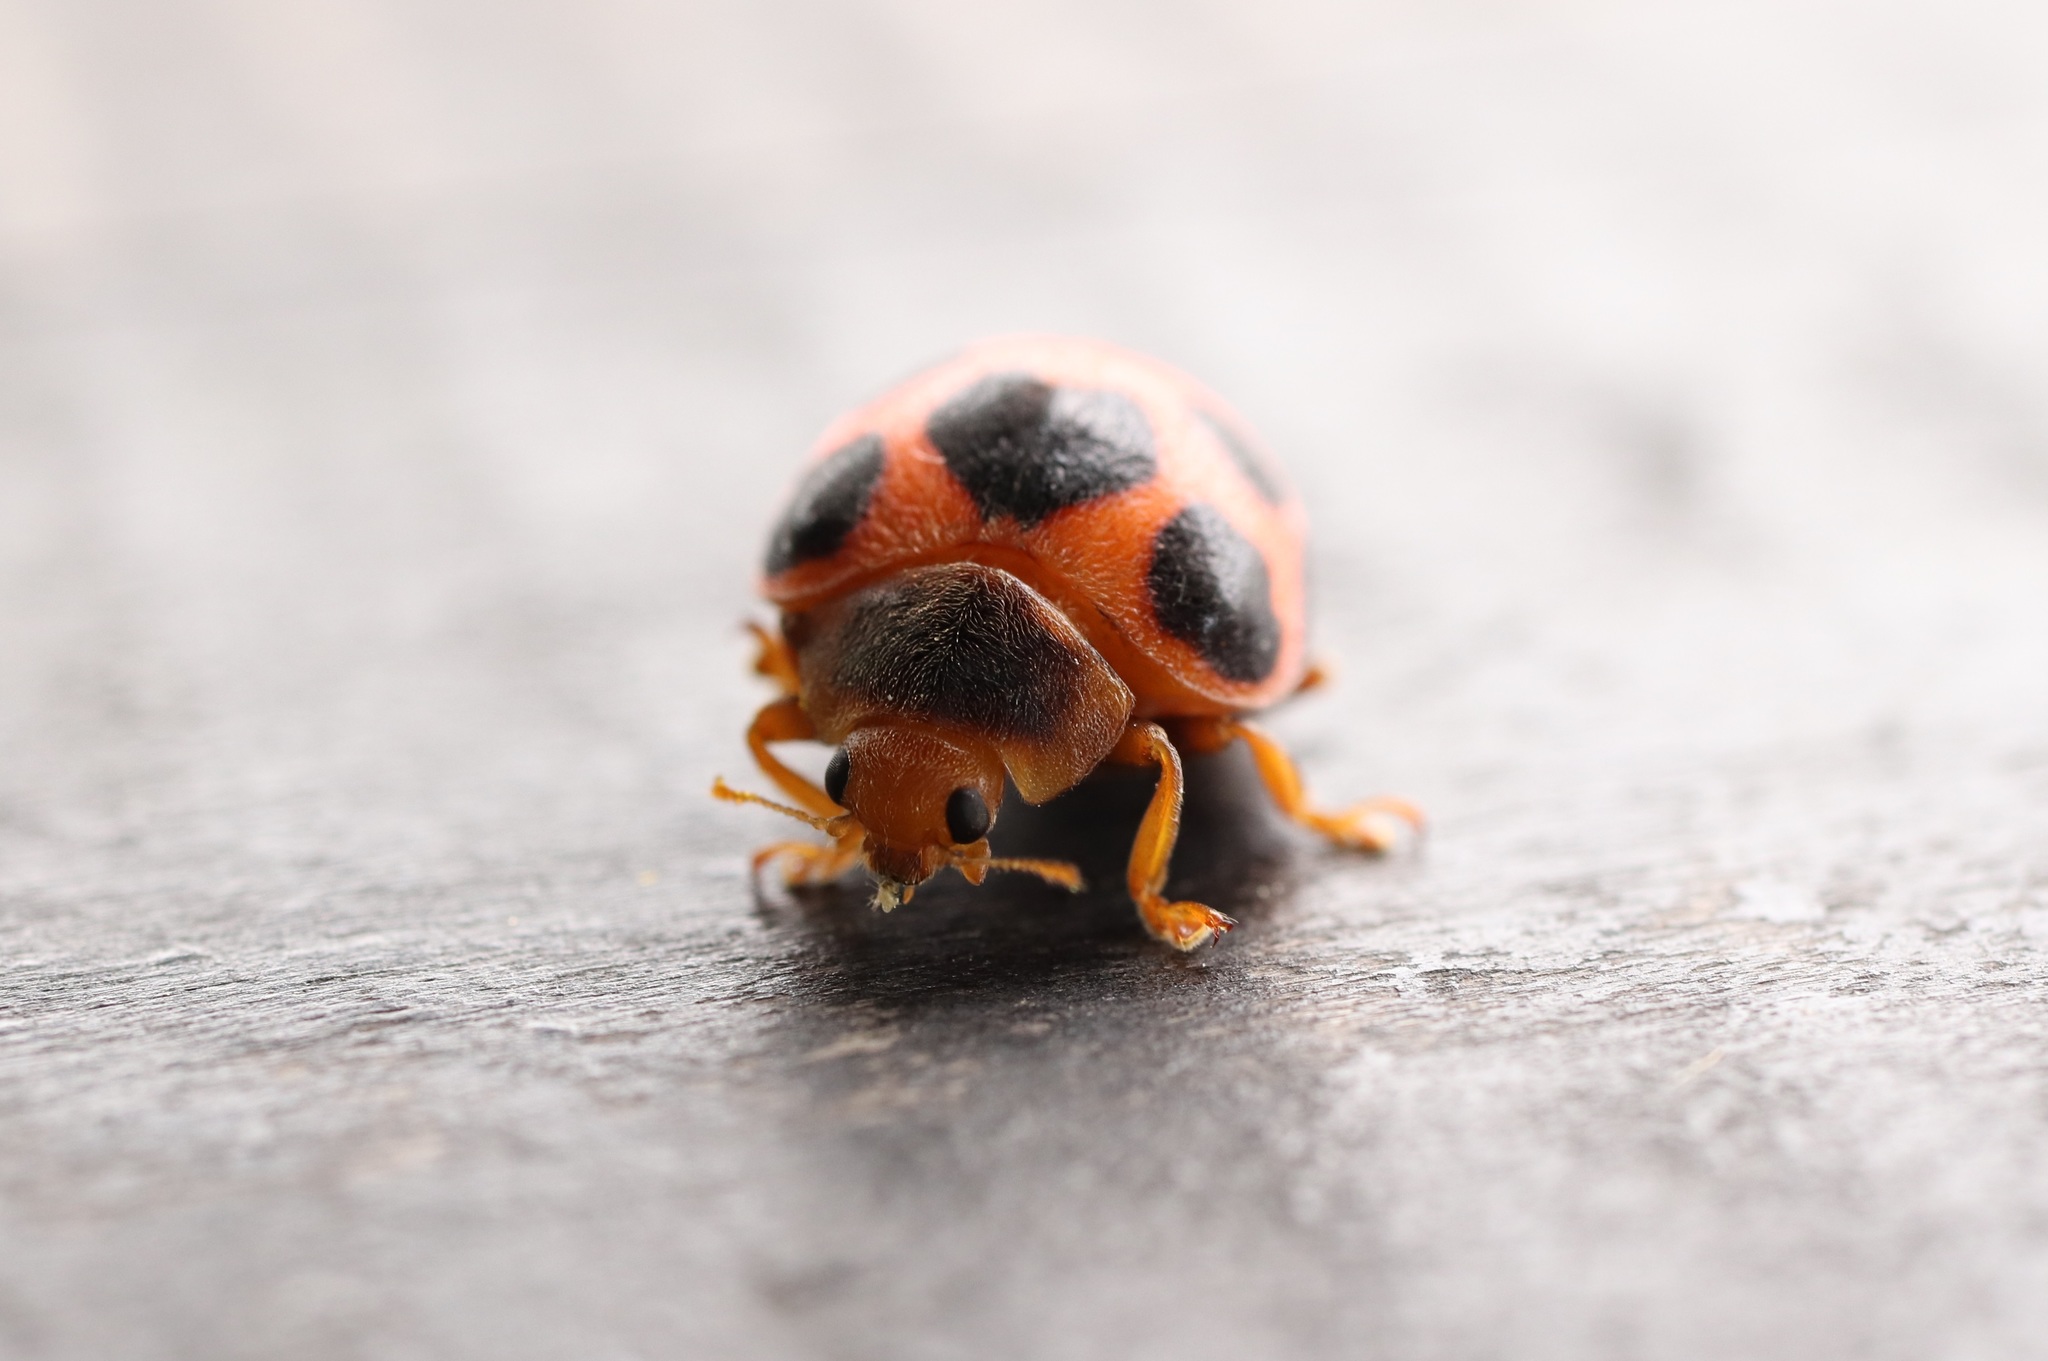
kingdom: Animalia
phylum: Arthropoda
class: Insecta
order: Coleoptera
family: Coccinellidae
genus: Diekeana
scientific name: Diekeana
